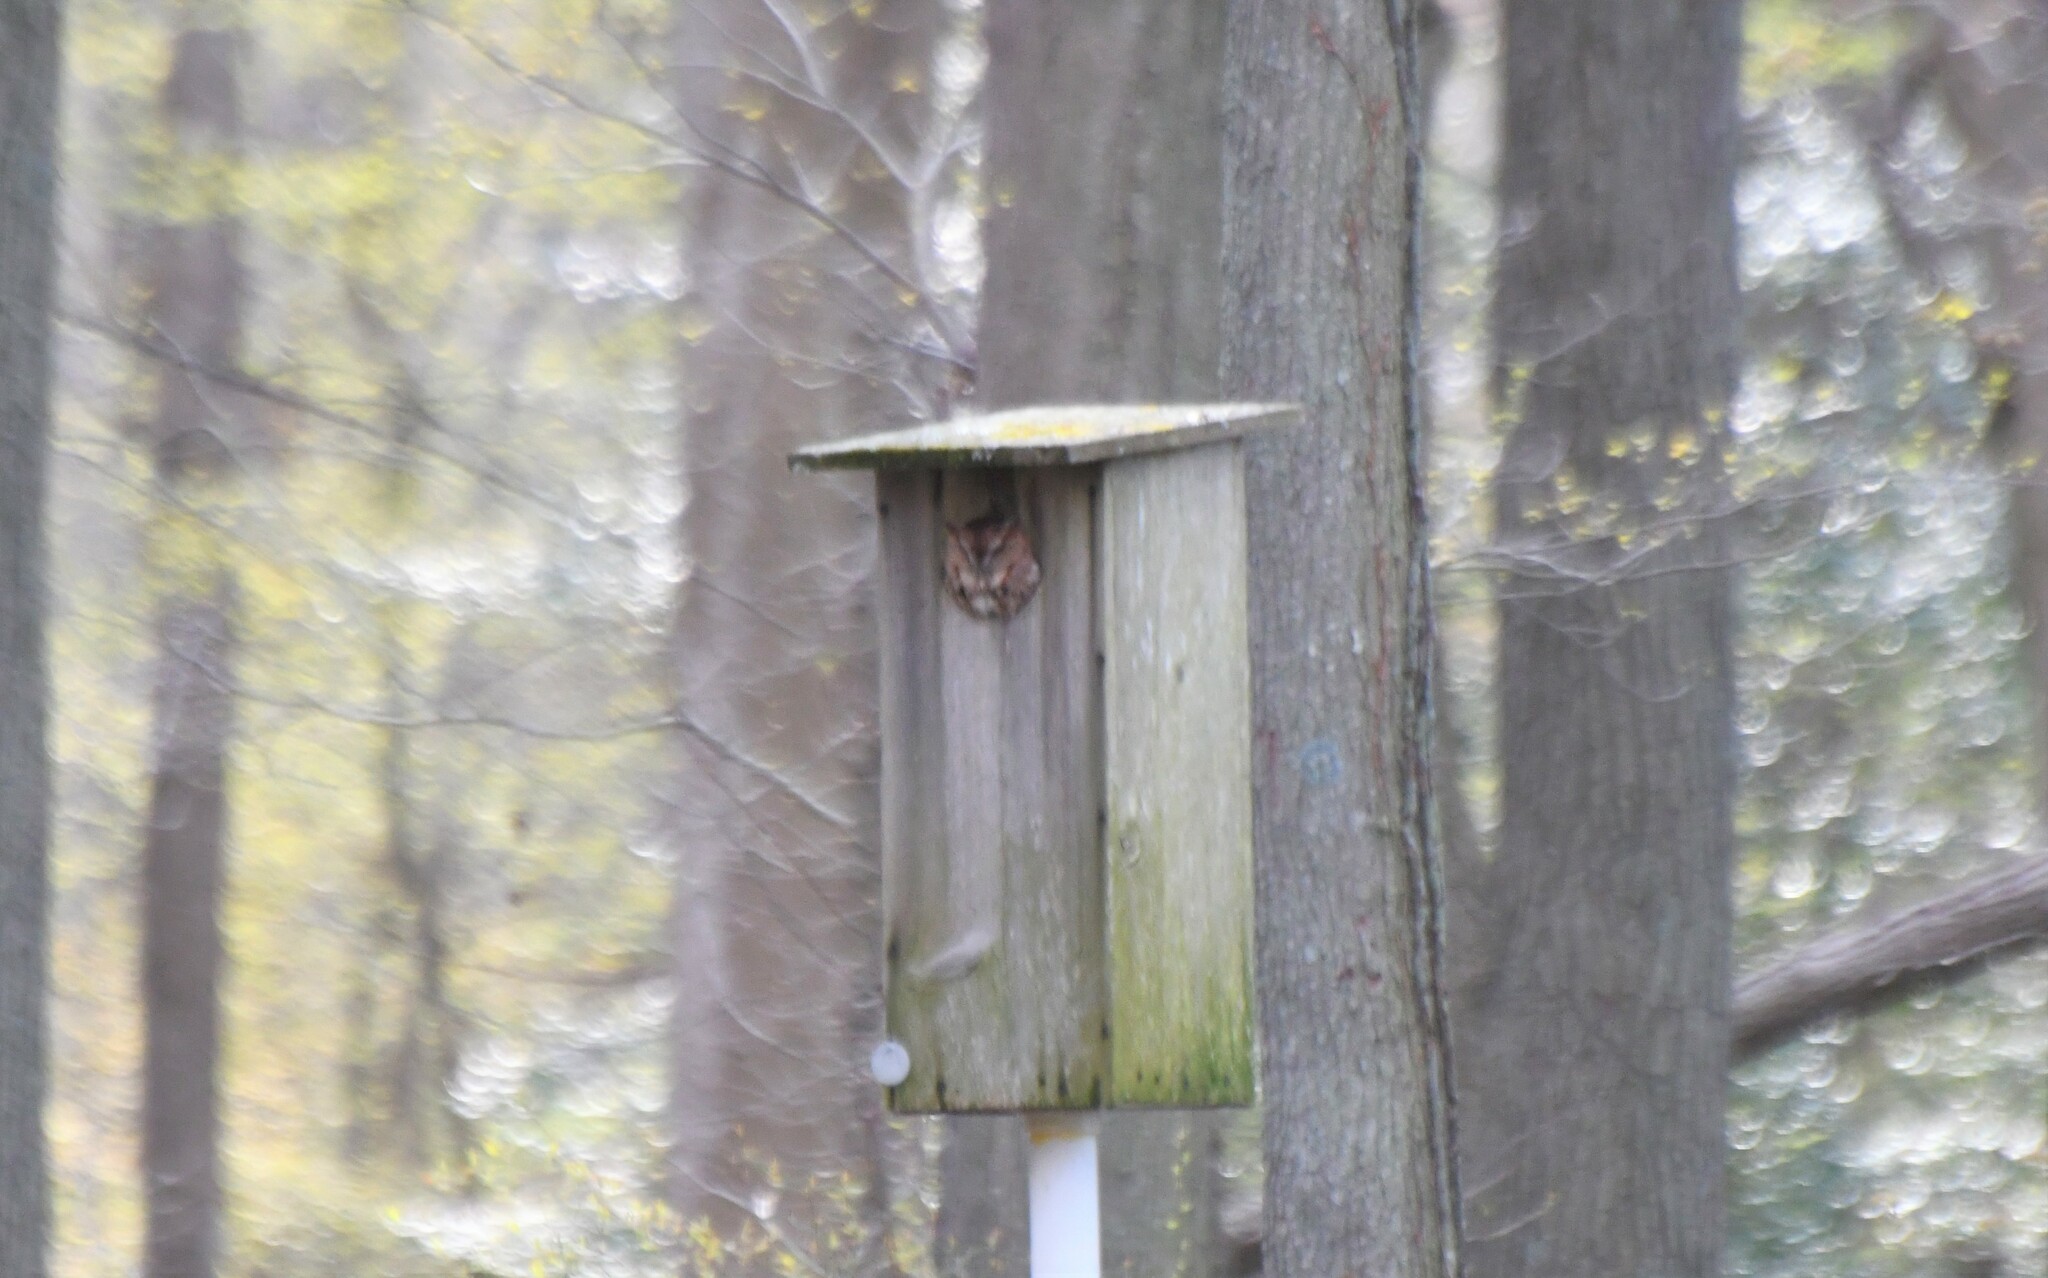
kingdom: Animalia
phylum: Chordata
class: Aves
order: Strigiformes
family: Strigidae
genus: Megascops
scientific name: Megascops asio
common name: Eastern screech-owl
